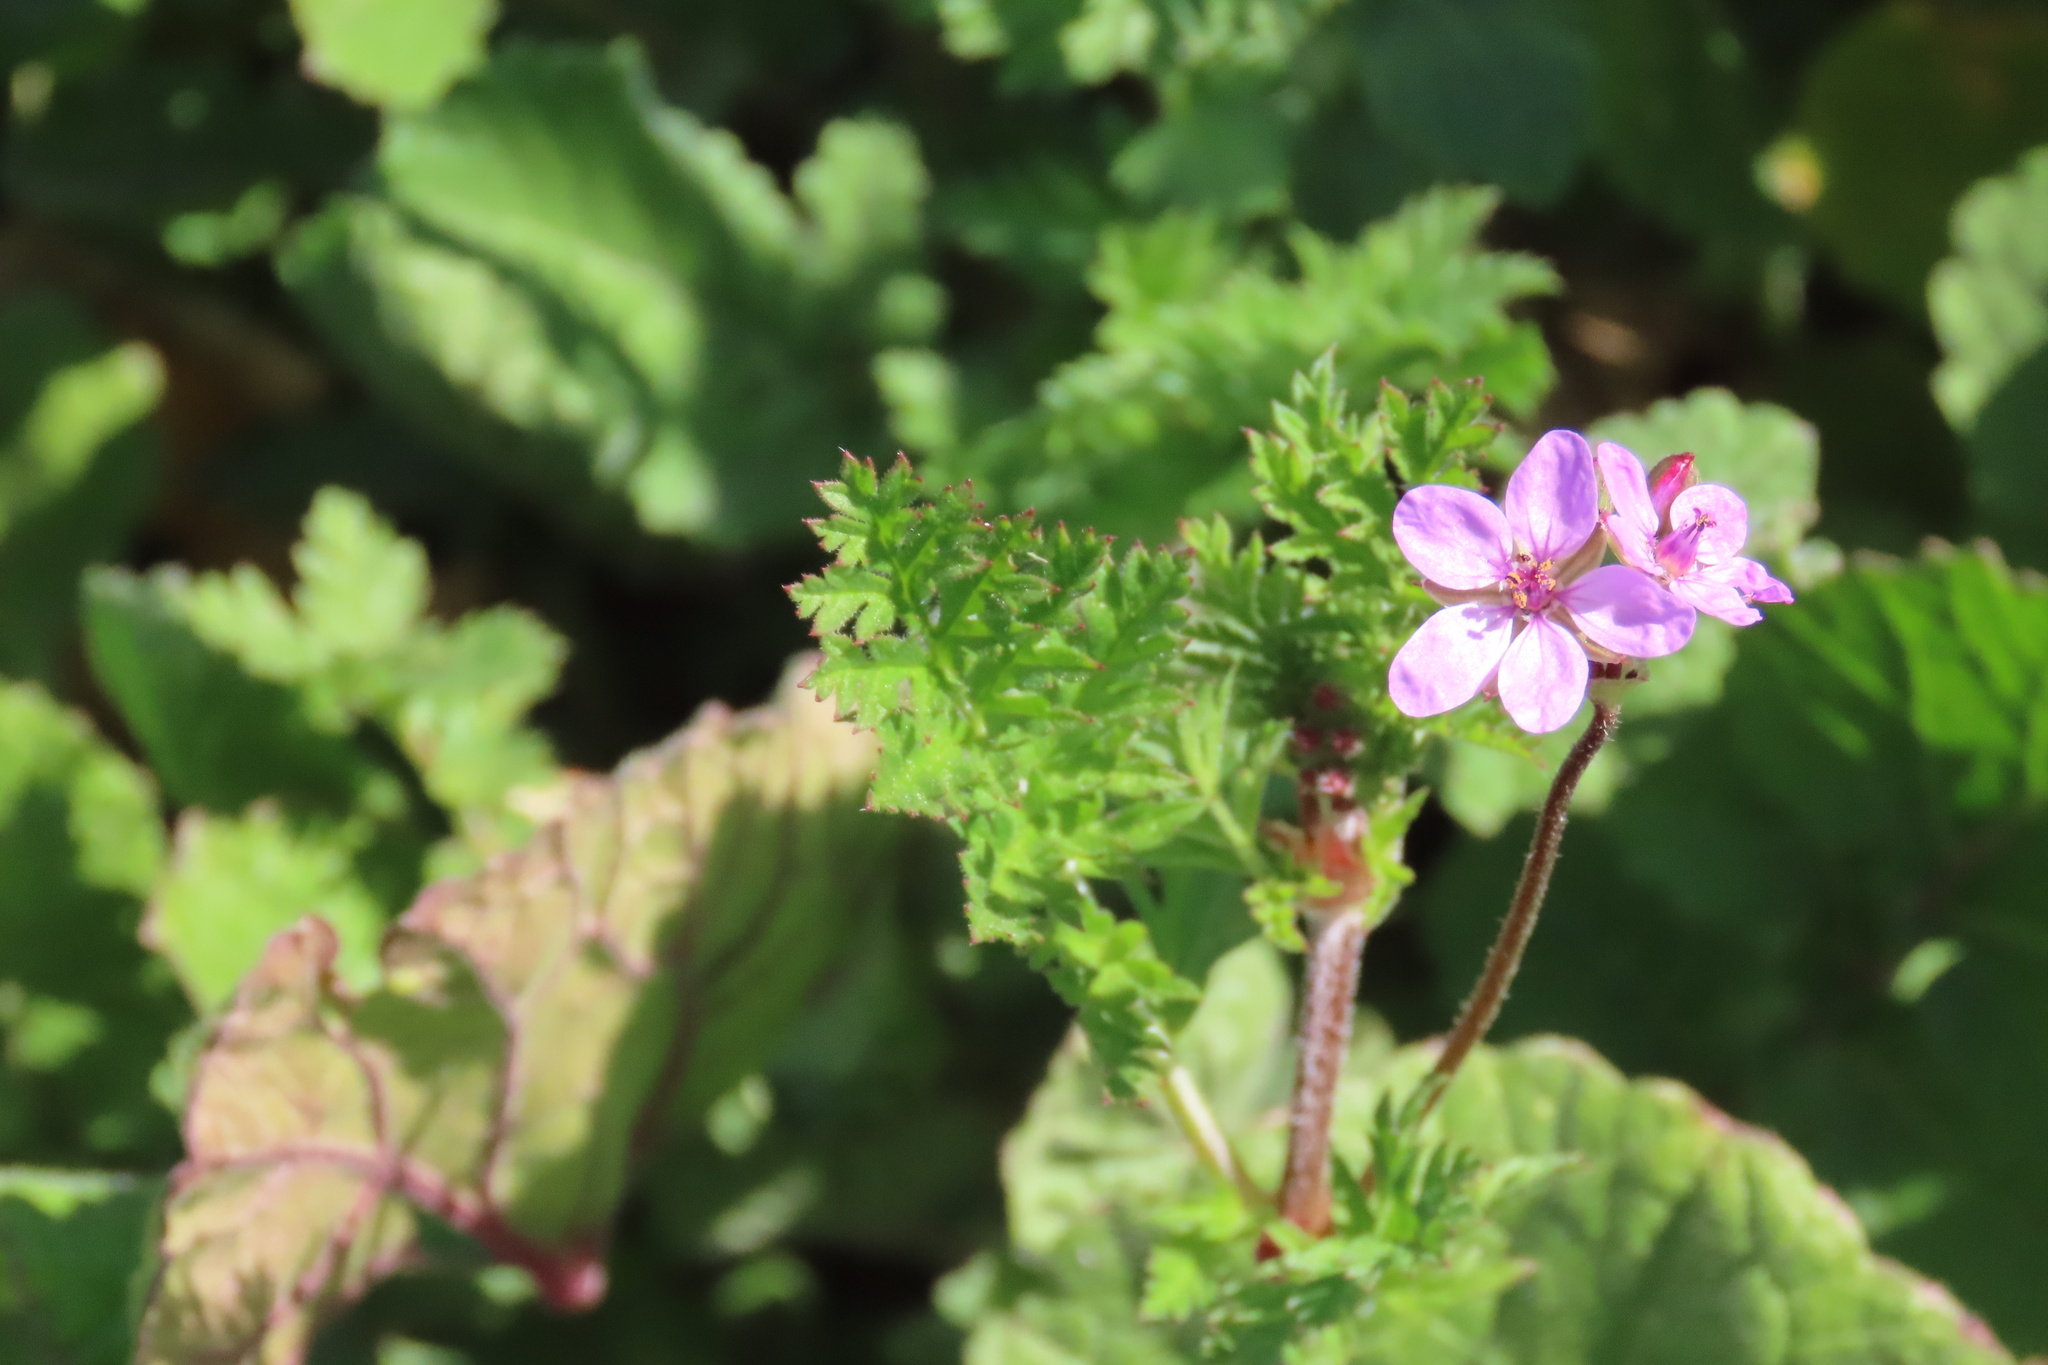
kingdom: Plantae
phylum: Tracheophyta
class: Magnoliopsida
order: Geraniales
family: Geraniaceae
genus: Erodium
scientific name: Erodium cicutarium
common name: Common stork's-bill
